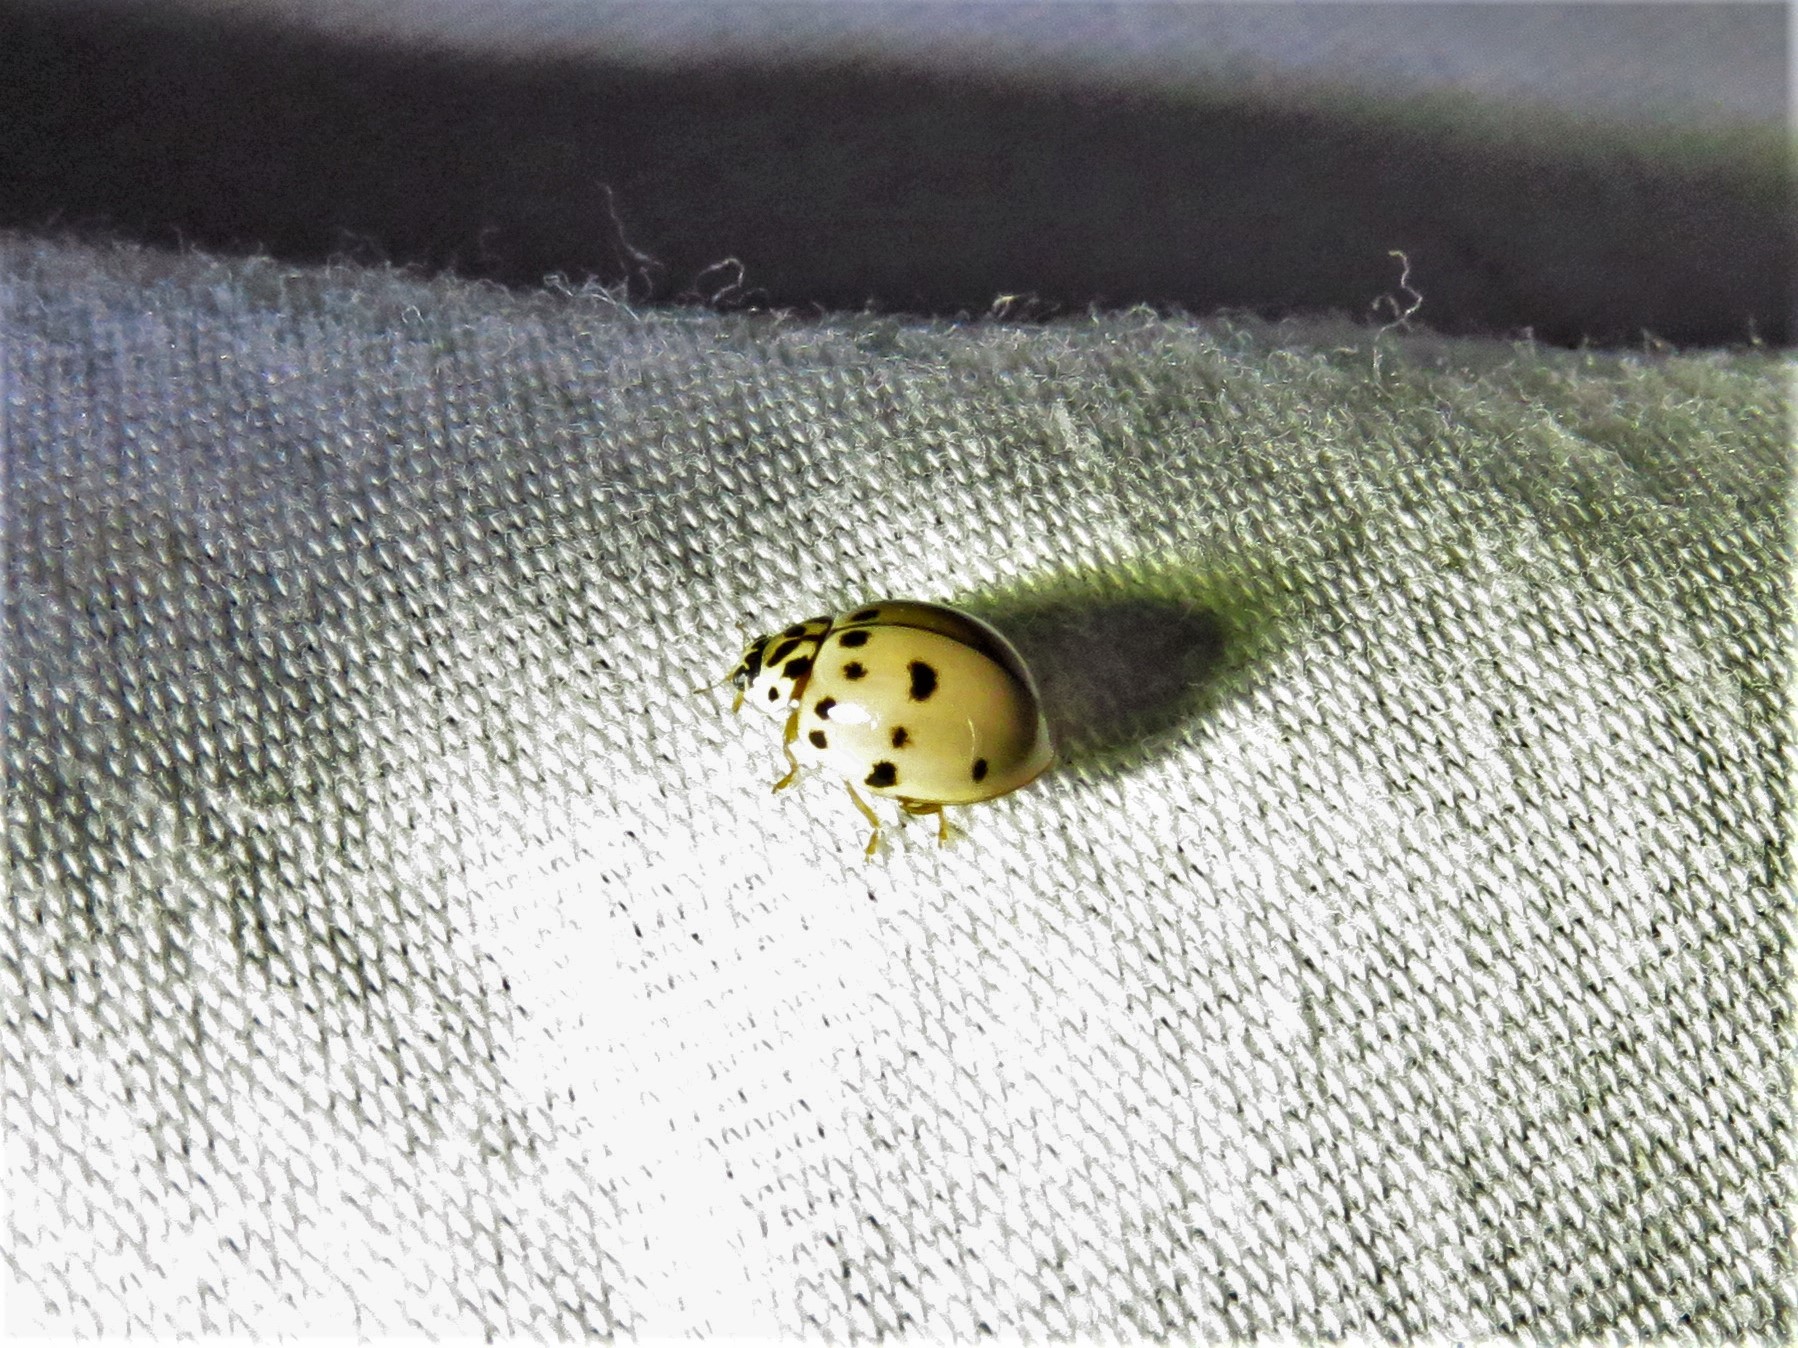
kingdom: Animalia
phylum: Arthropoda
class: Insecta
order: Coleoptera
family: Coccinellidae
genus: Olla
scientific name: Olla v-nigrum
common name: Ashy gray lady beetle
